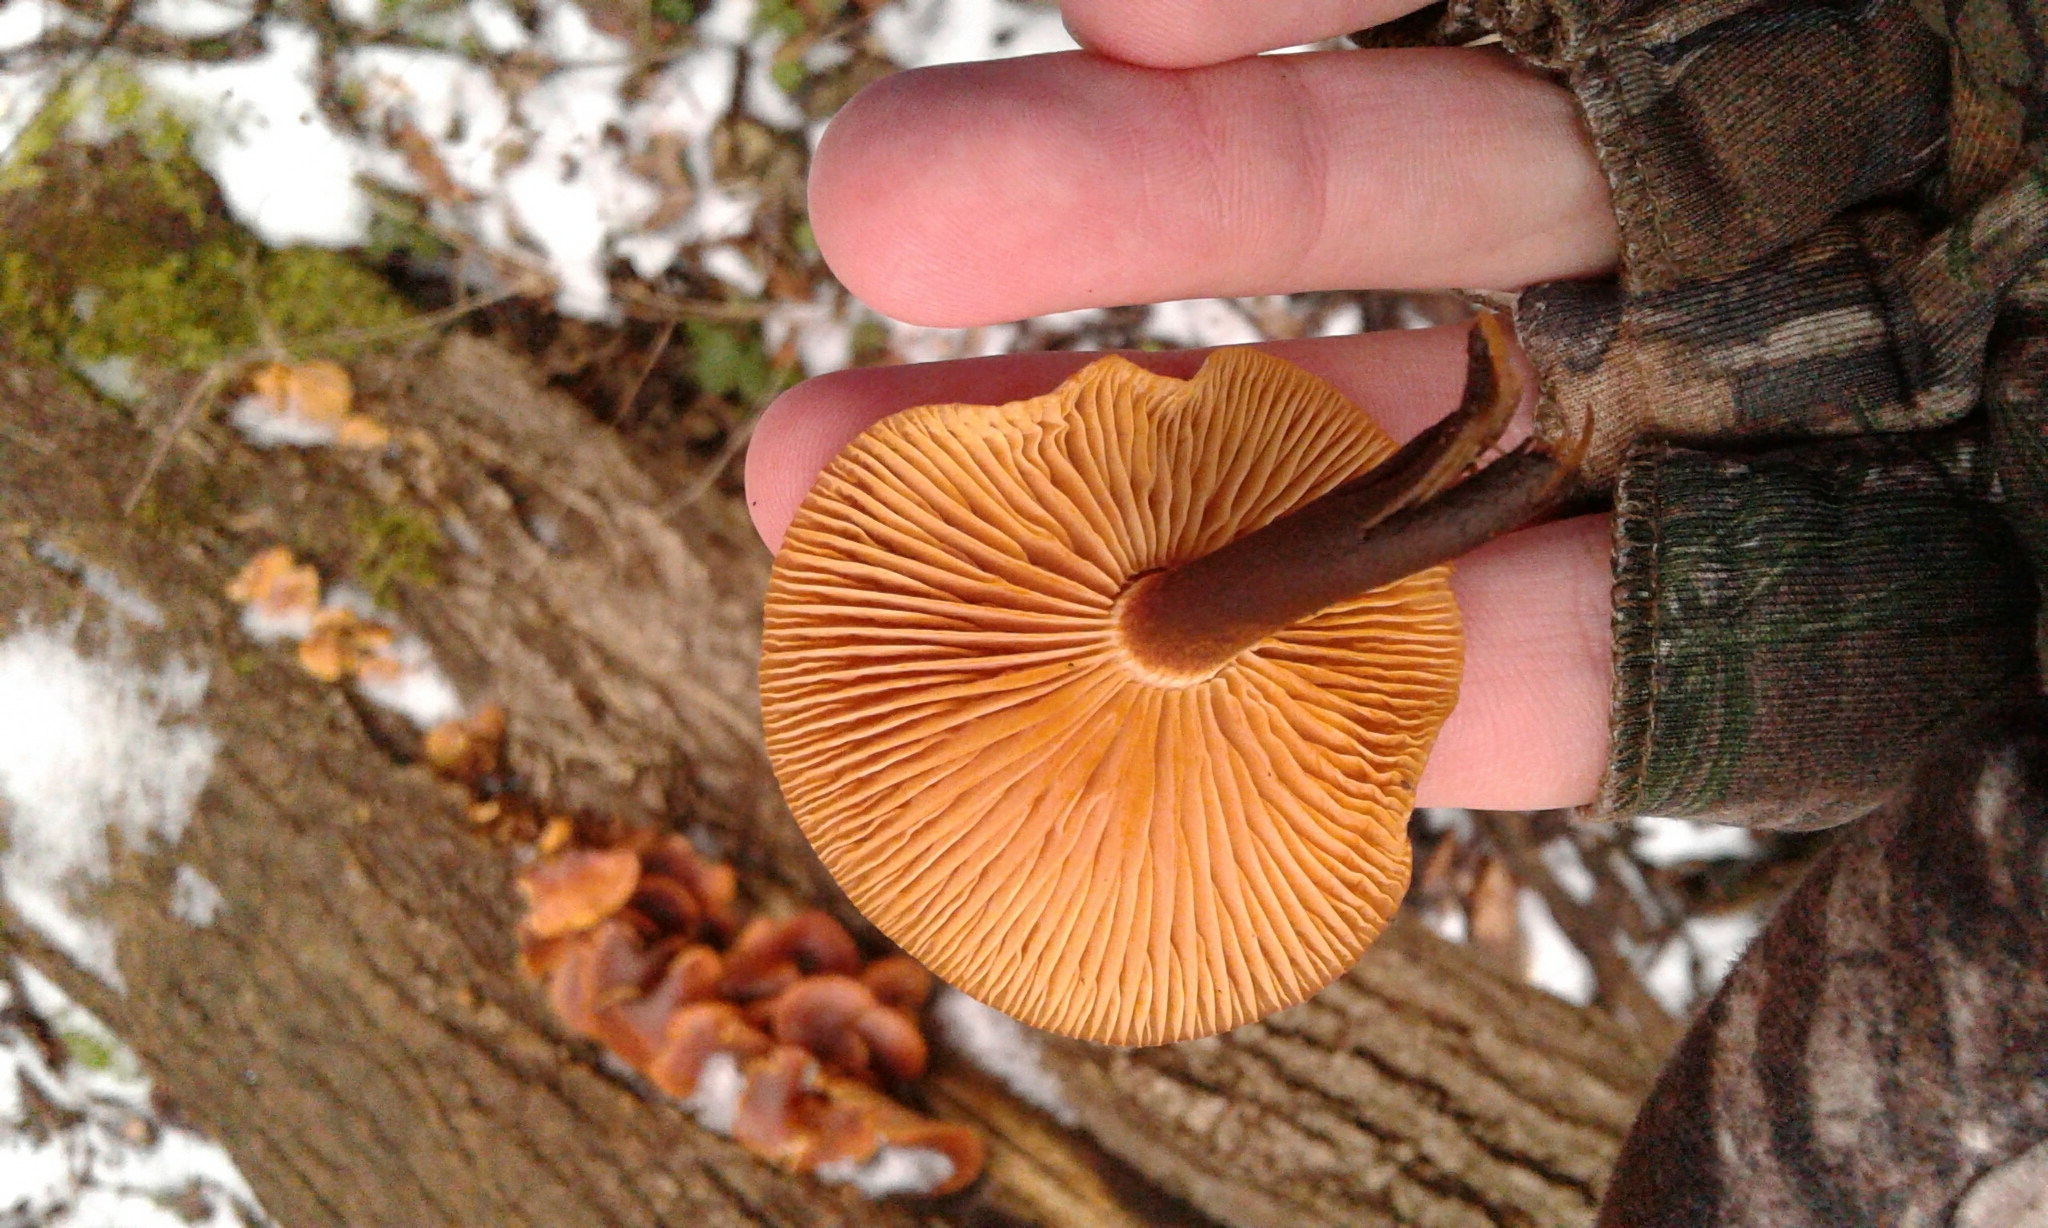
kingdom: Fungi
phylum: Basidiomycota
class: Agaricomycetes
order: Agaricales
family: Physalacriaceae
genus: Flammulina
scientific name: Flammulina velutipes
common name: Velvet shank
